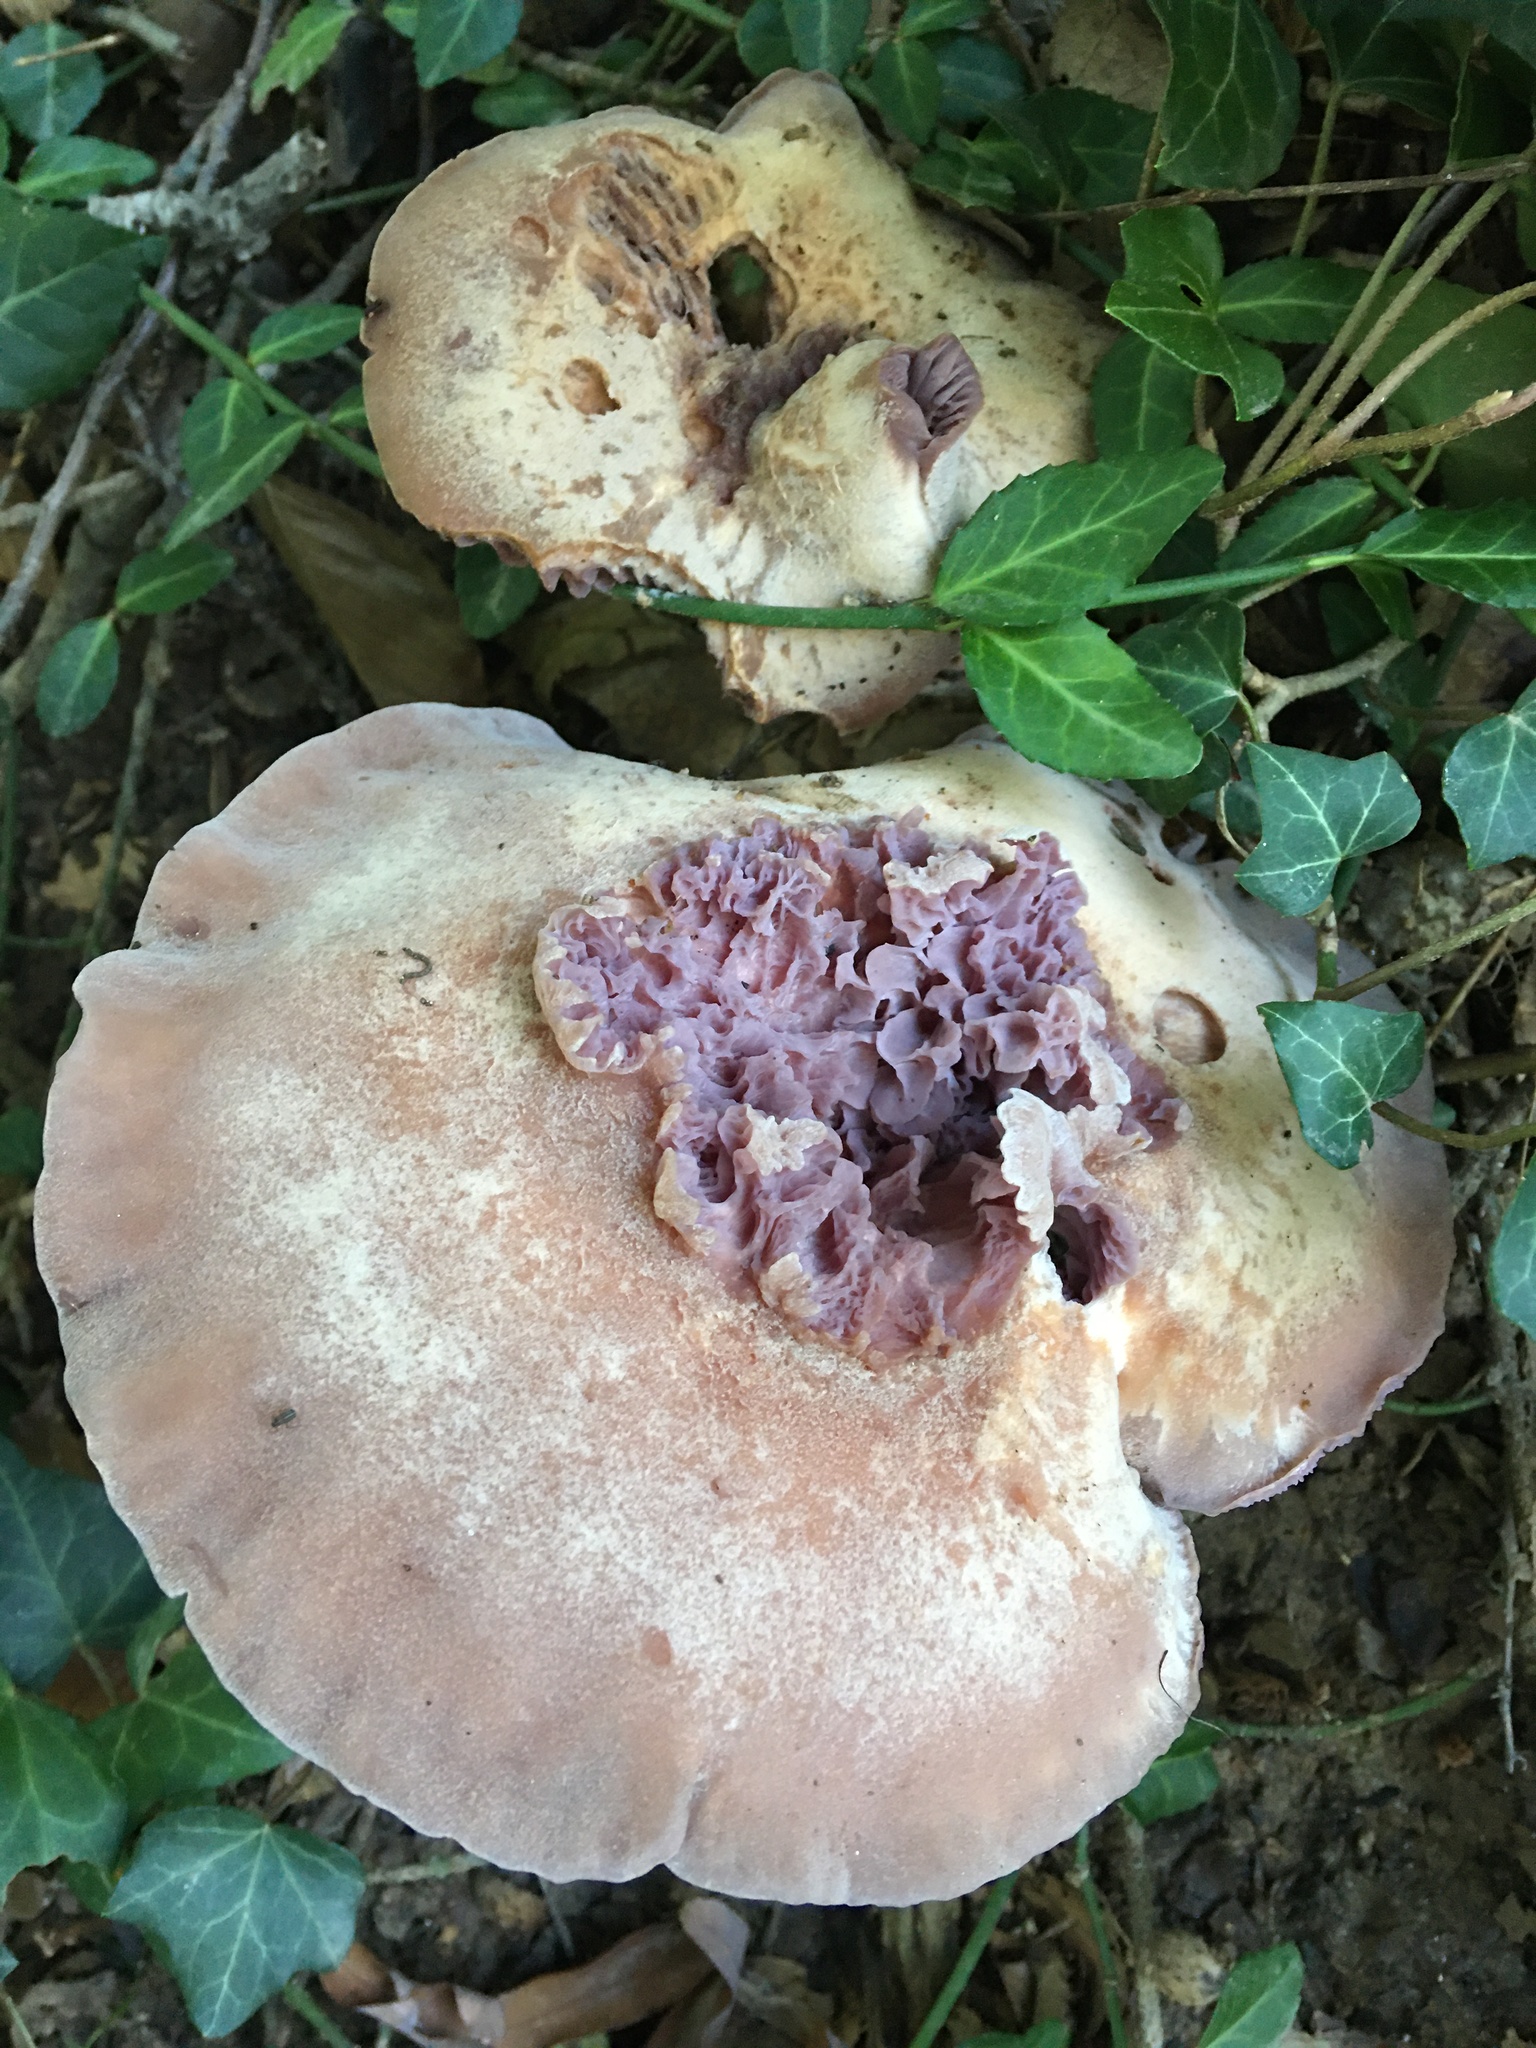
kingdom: Fungi
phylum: Basidiomycota
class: Agaricomycetes
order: Agaricales
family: Hydnangiaceae
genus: Laccaria
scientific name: Laccaria ochropurpurea
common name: Purple laccaria
